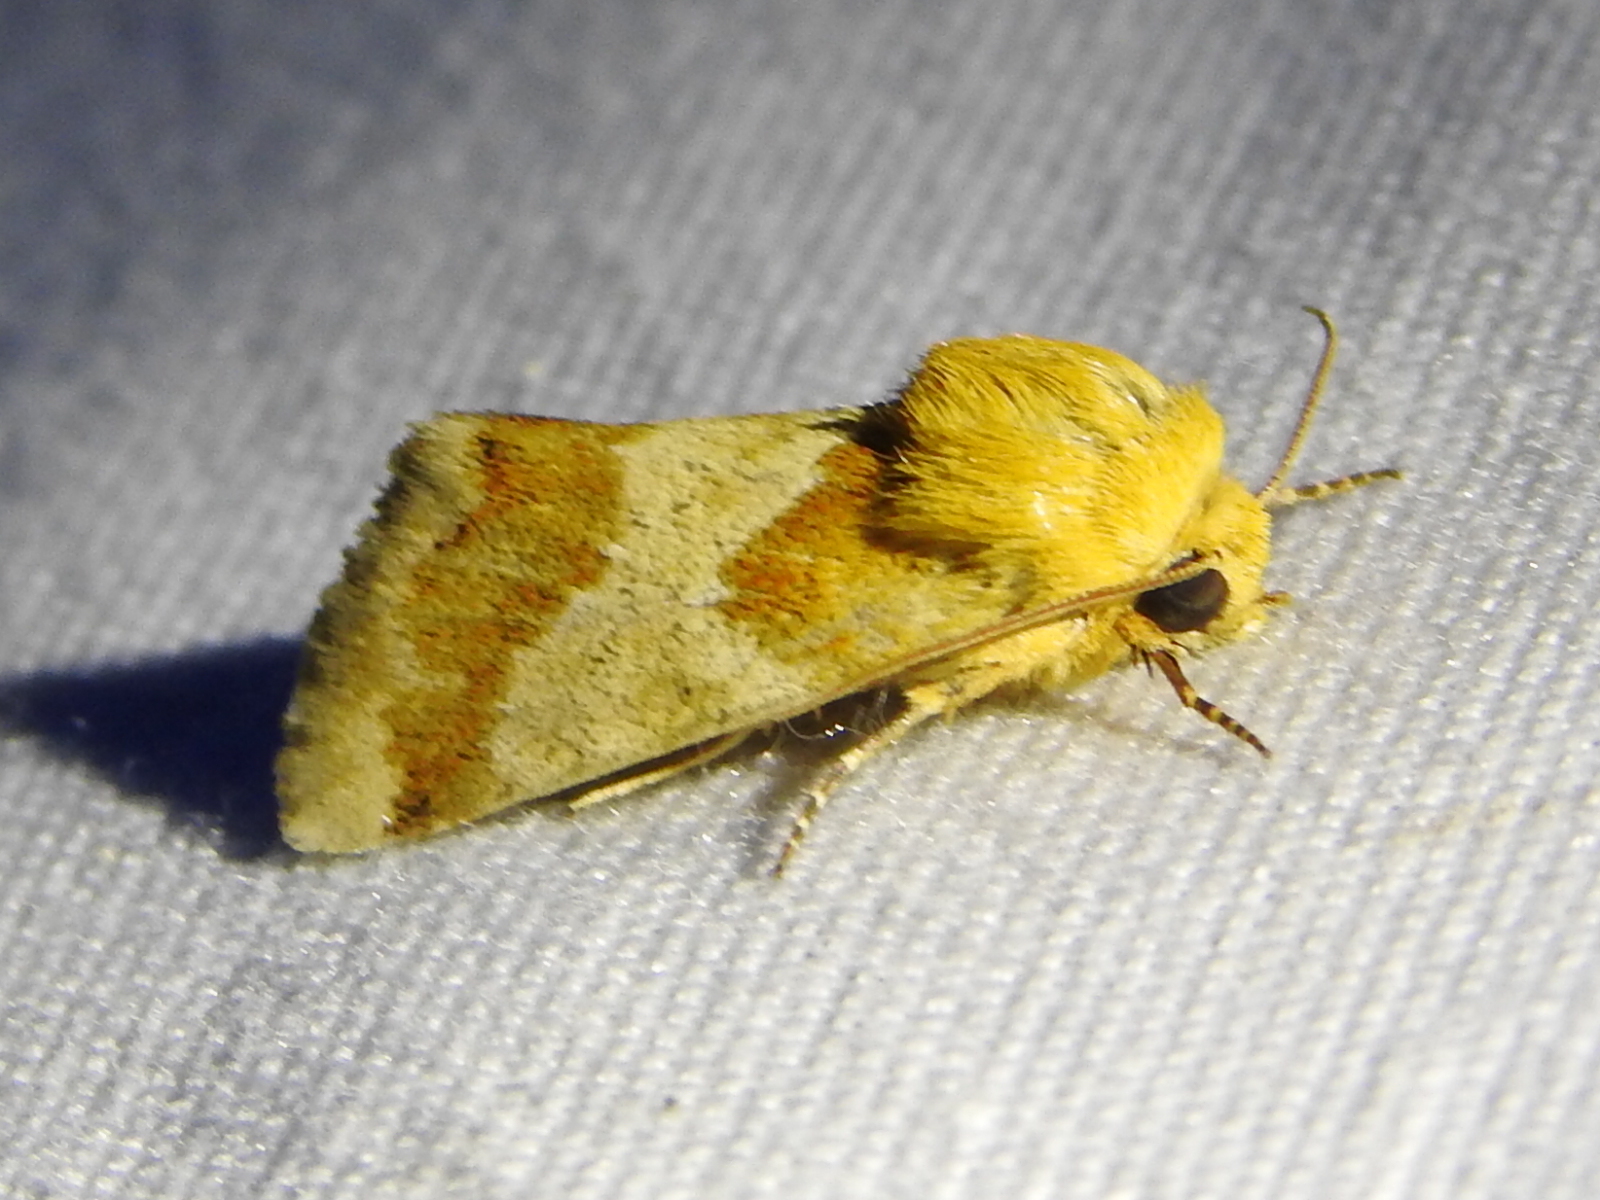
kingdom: Animalia
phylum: Arthropoda
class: Insecta
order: Lepidoptera
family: Noctuidae
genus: Schinia
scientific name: Schinia siren
